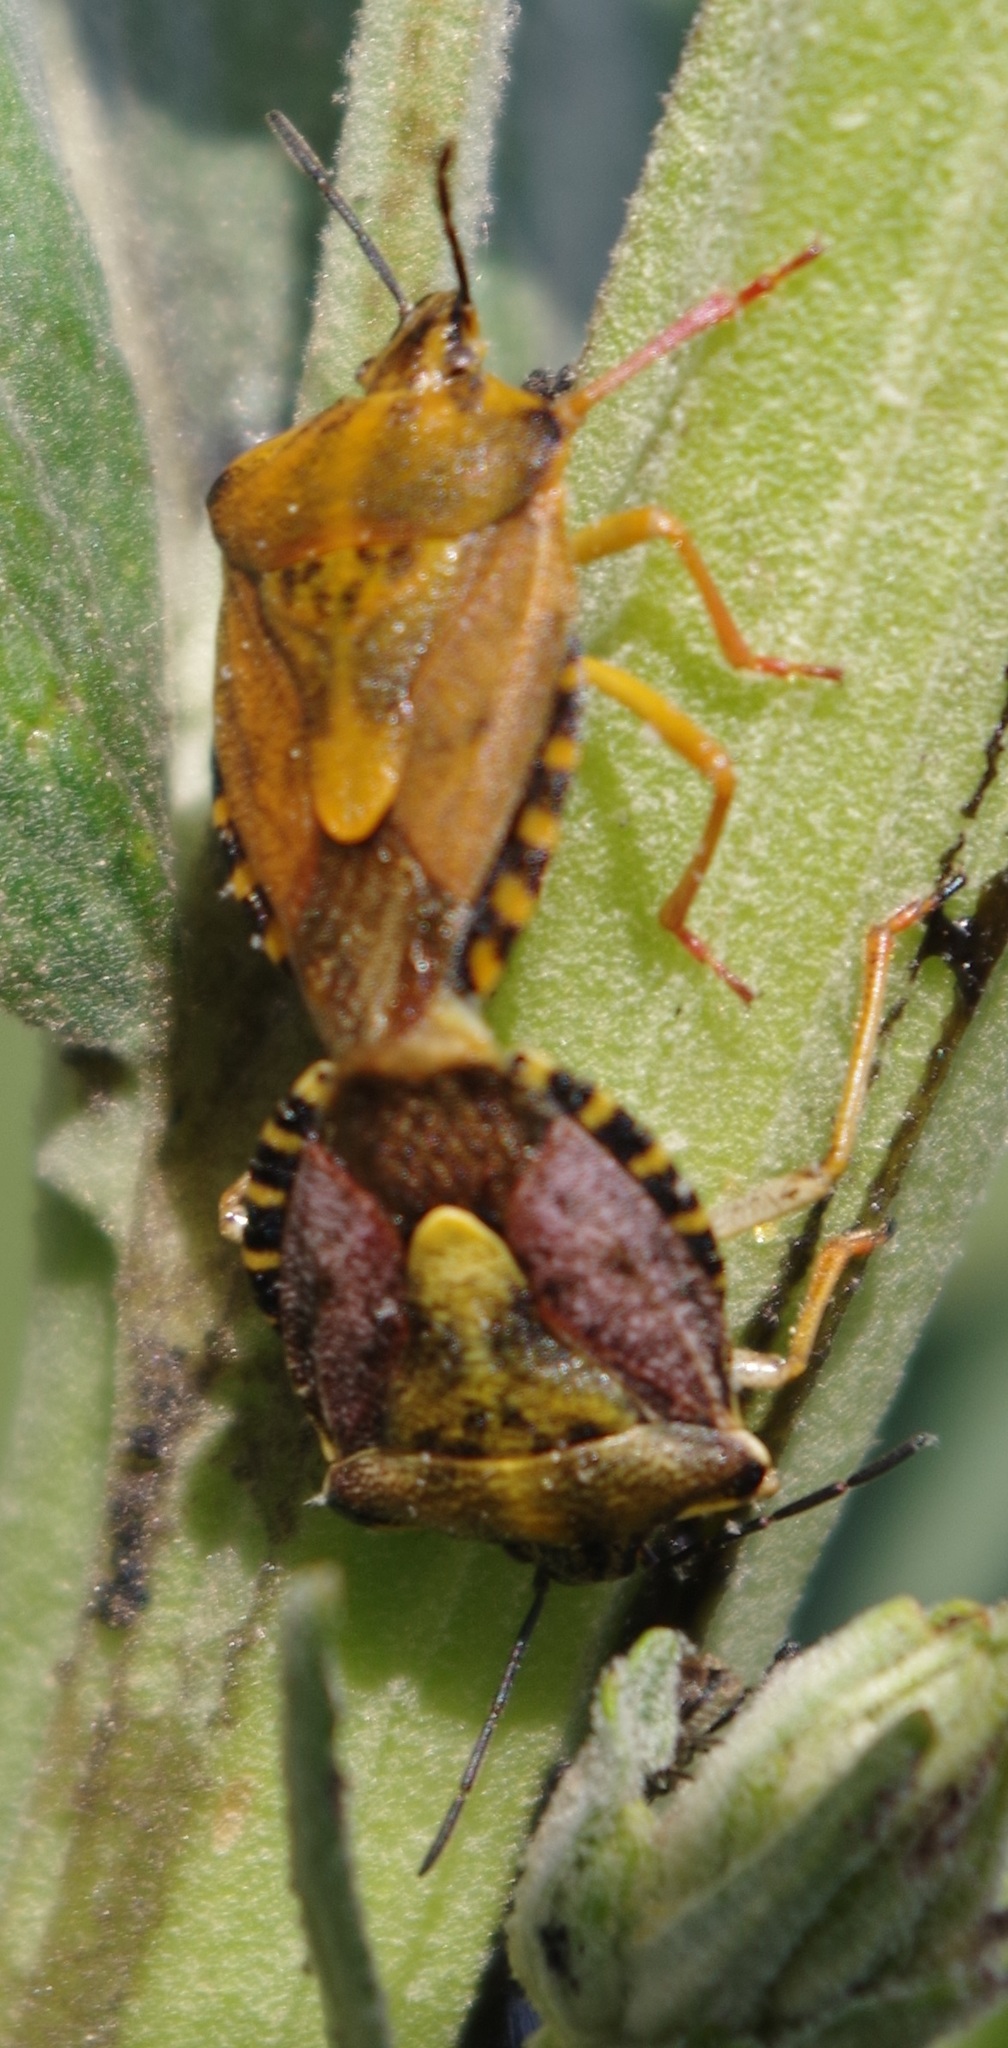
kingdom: Animalia
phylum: Arthropoda
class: Insecta
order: Hemiptera
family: Pentatomidae
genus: Carpocoris
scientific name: Carpocoris purpureipennis
